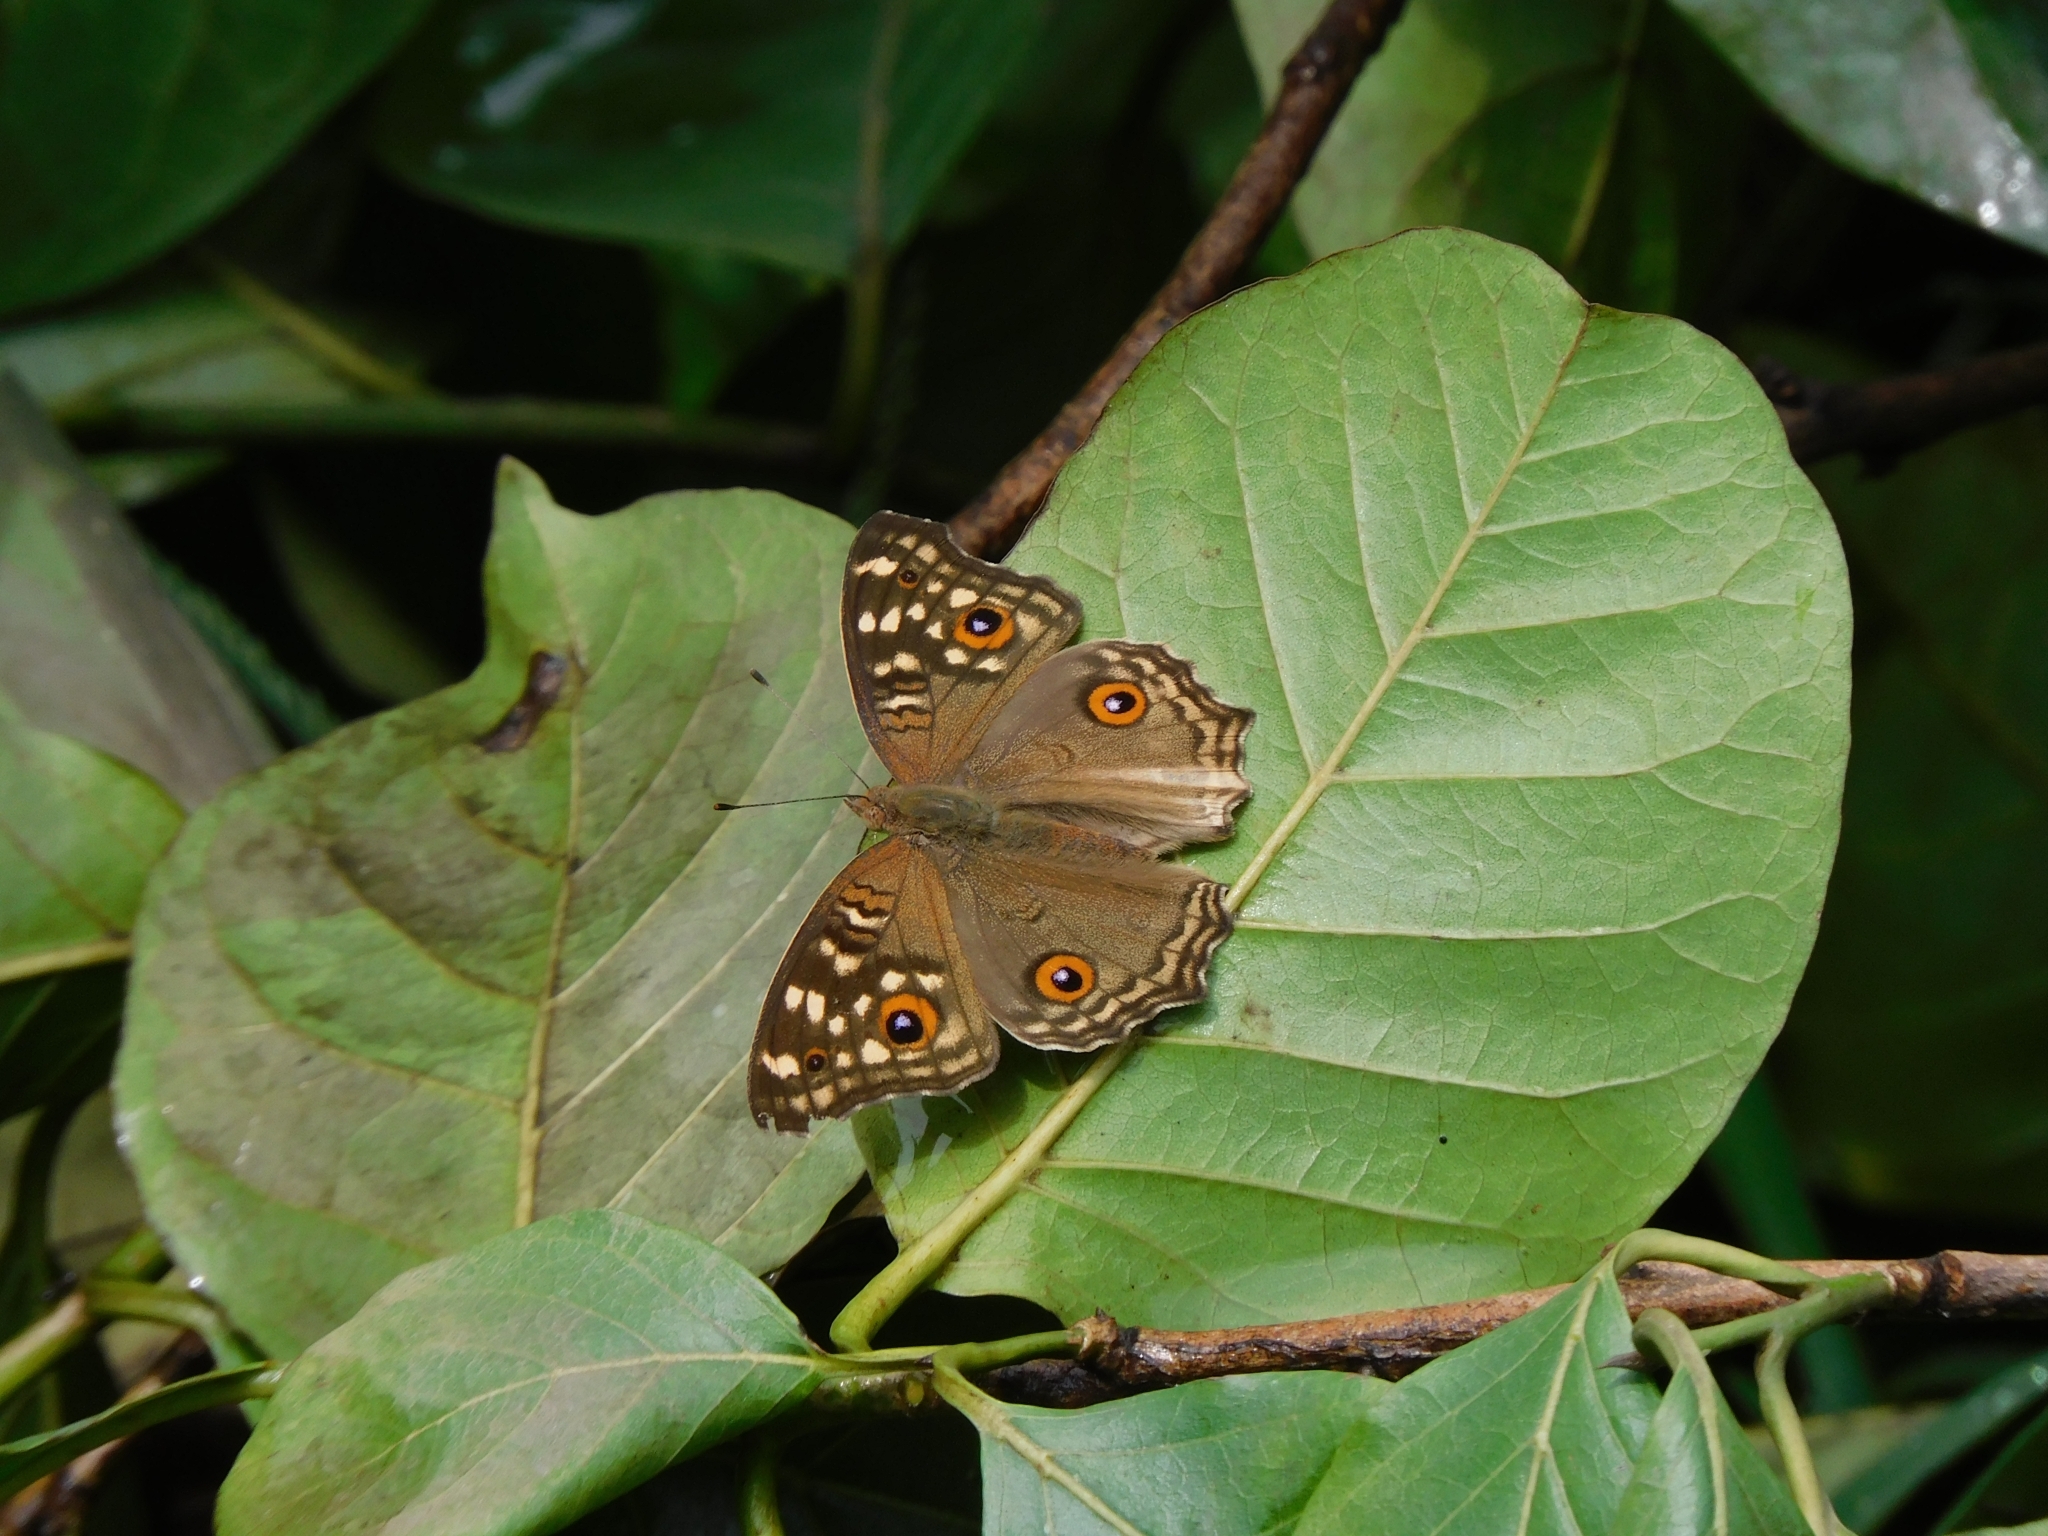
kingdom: Animalia
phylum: Arthropoda
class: Insecta
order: Lepidoptera
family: Nymphalidae
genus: Junonia
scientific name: Junonia lemonias
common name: Lemon pansy
